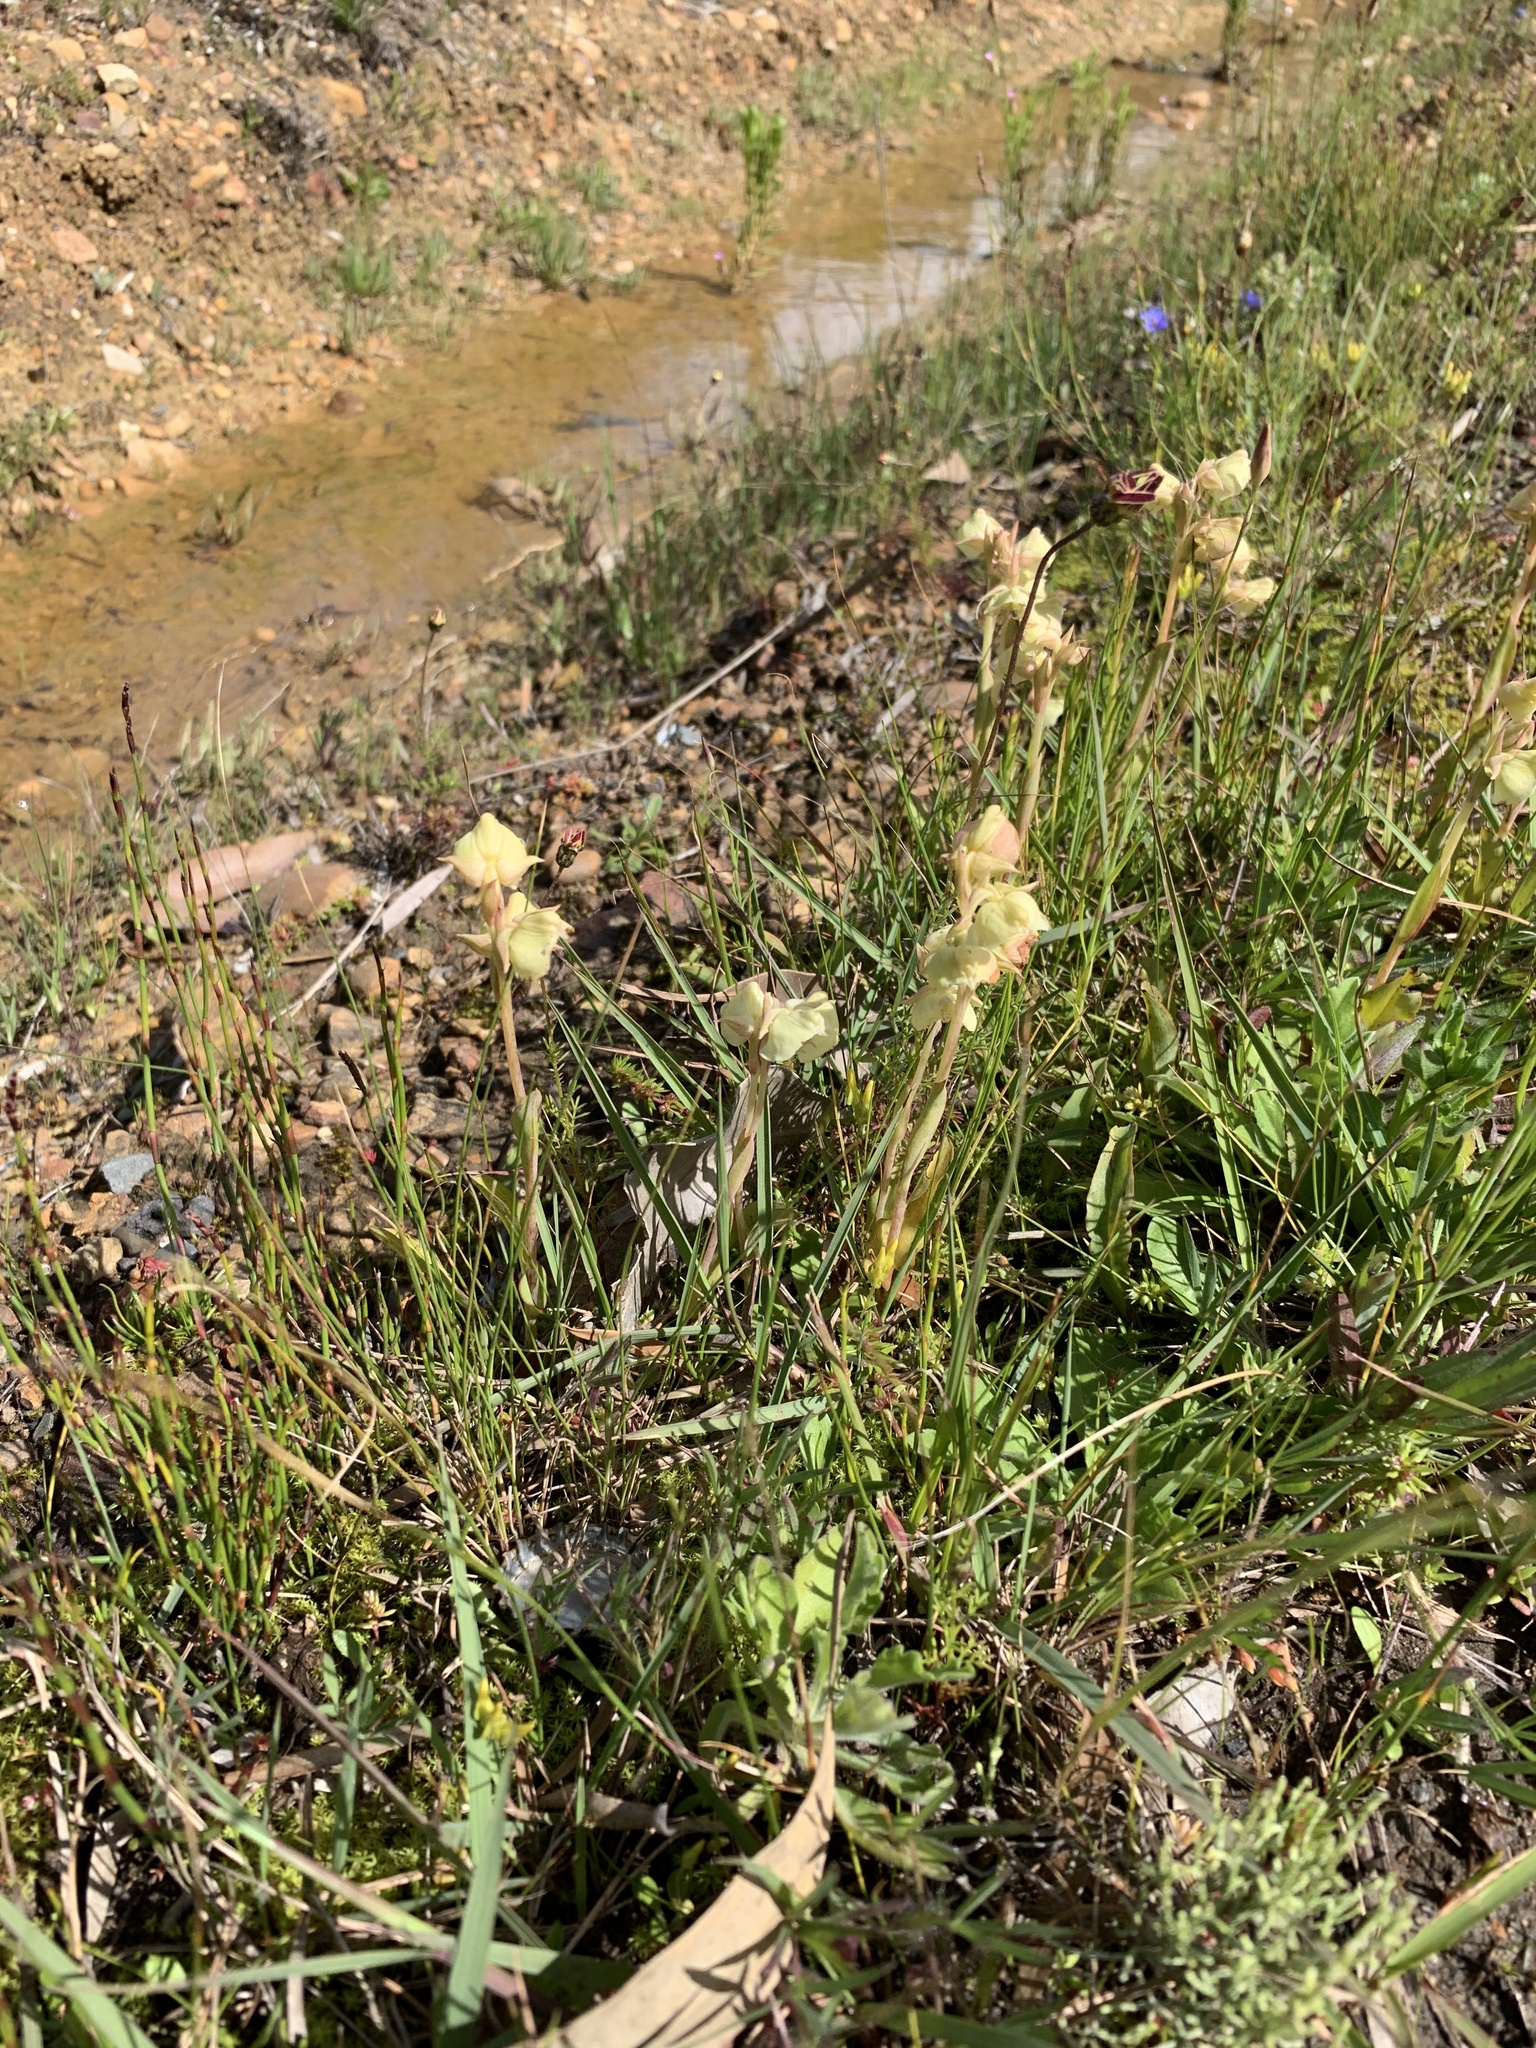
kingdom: Plantae
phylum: Tracheophyta
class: Liliopsida
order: Asparagales
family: Orchidaceae
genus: Pterygodium
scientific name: Pterygodium catholicum
